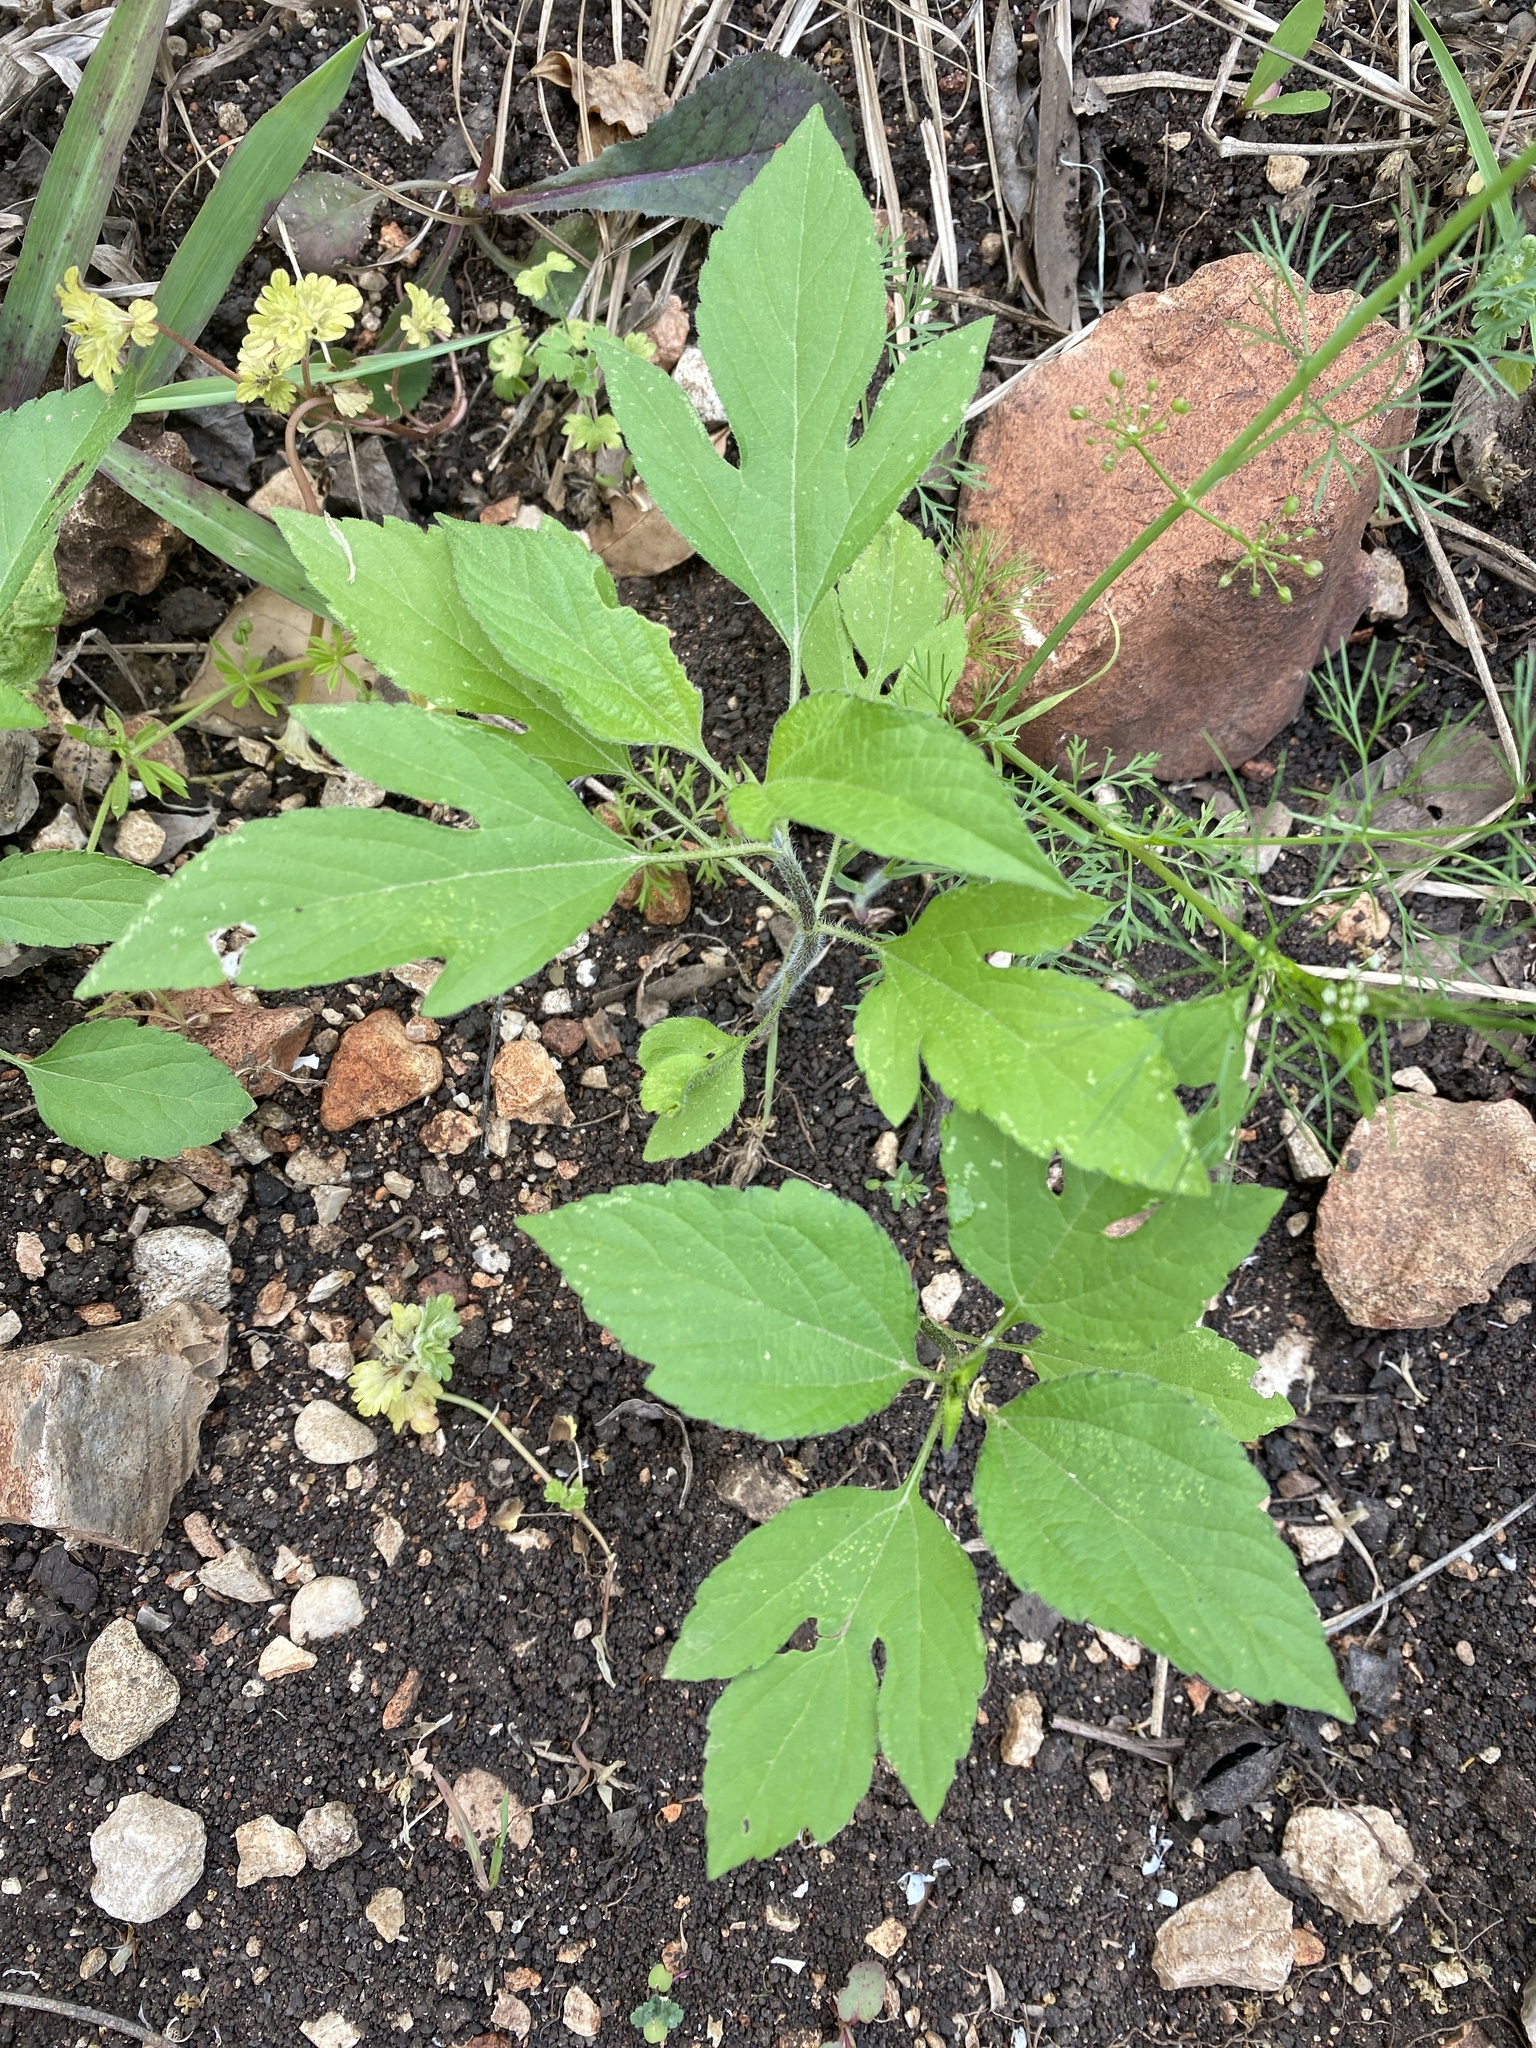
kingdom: Plantae
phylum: Tracheophyta
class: Magnoliopsida
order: Asterales
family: Asteraceae
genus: Ambrosia
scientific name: Ambrosia trifida
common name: Giant ragweed
